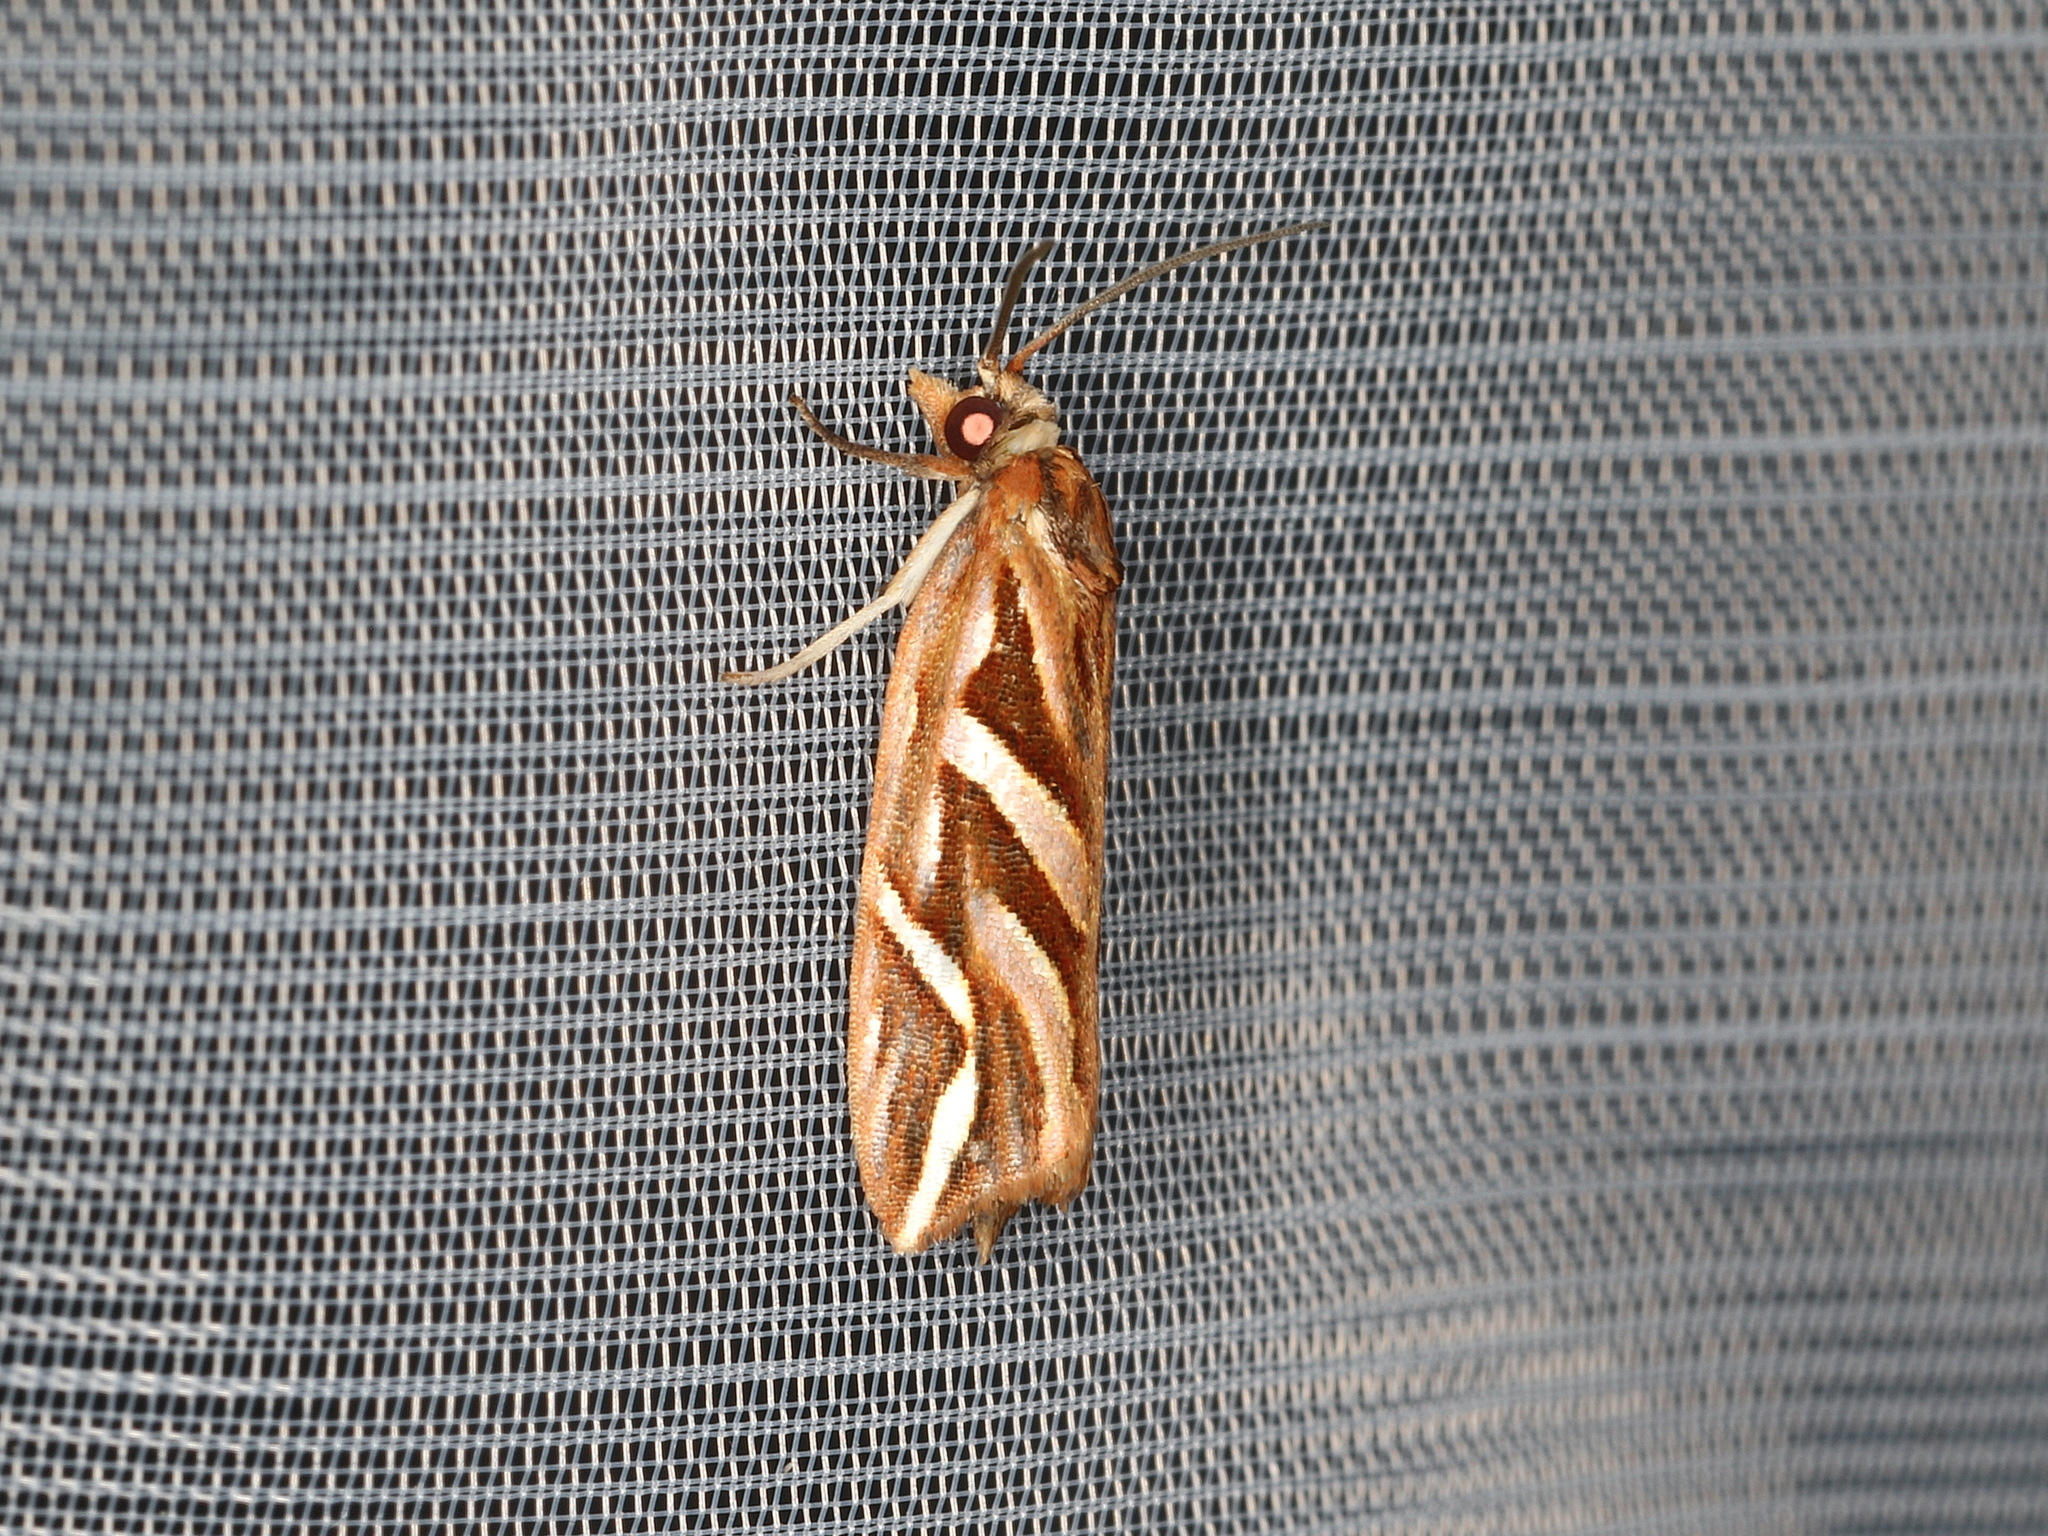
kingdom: Animalia
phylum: Arthropoda
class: Insecta
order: Lepidoptera
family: Tortricidae
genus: Goboea
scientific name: Goboea copiosana
